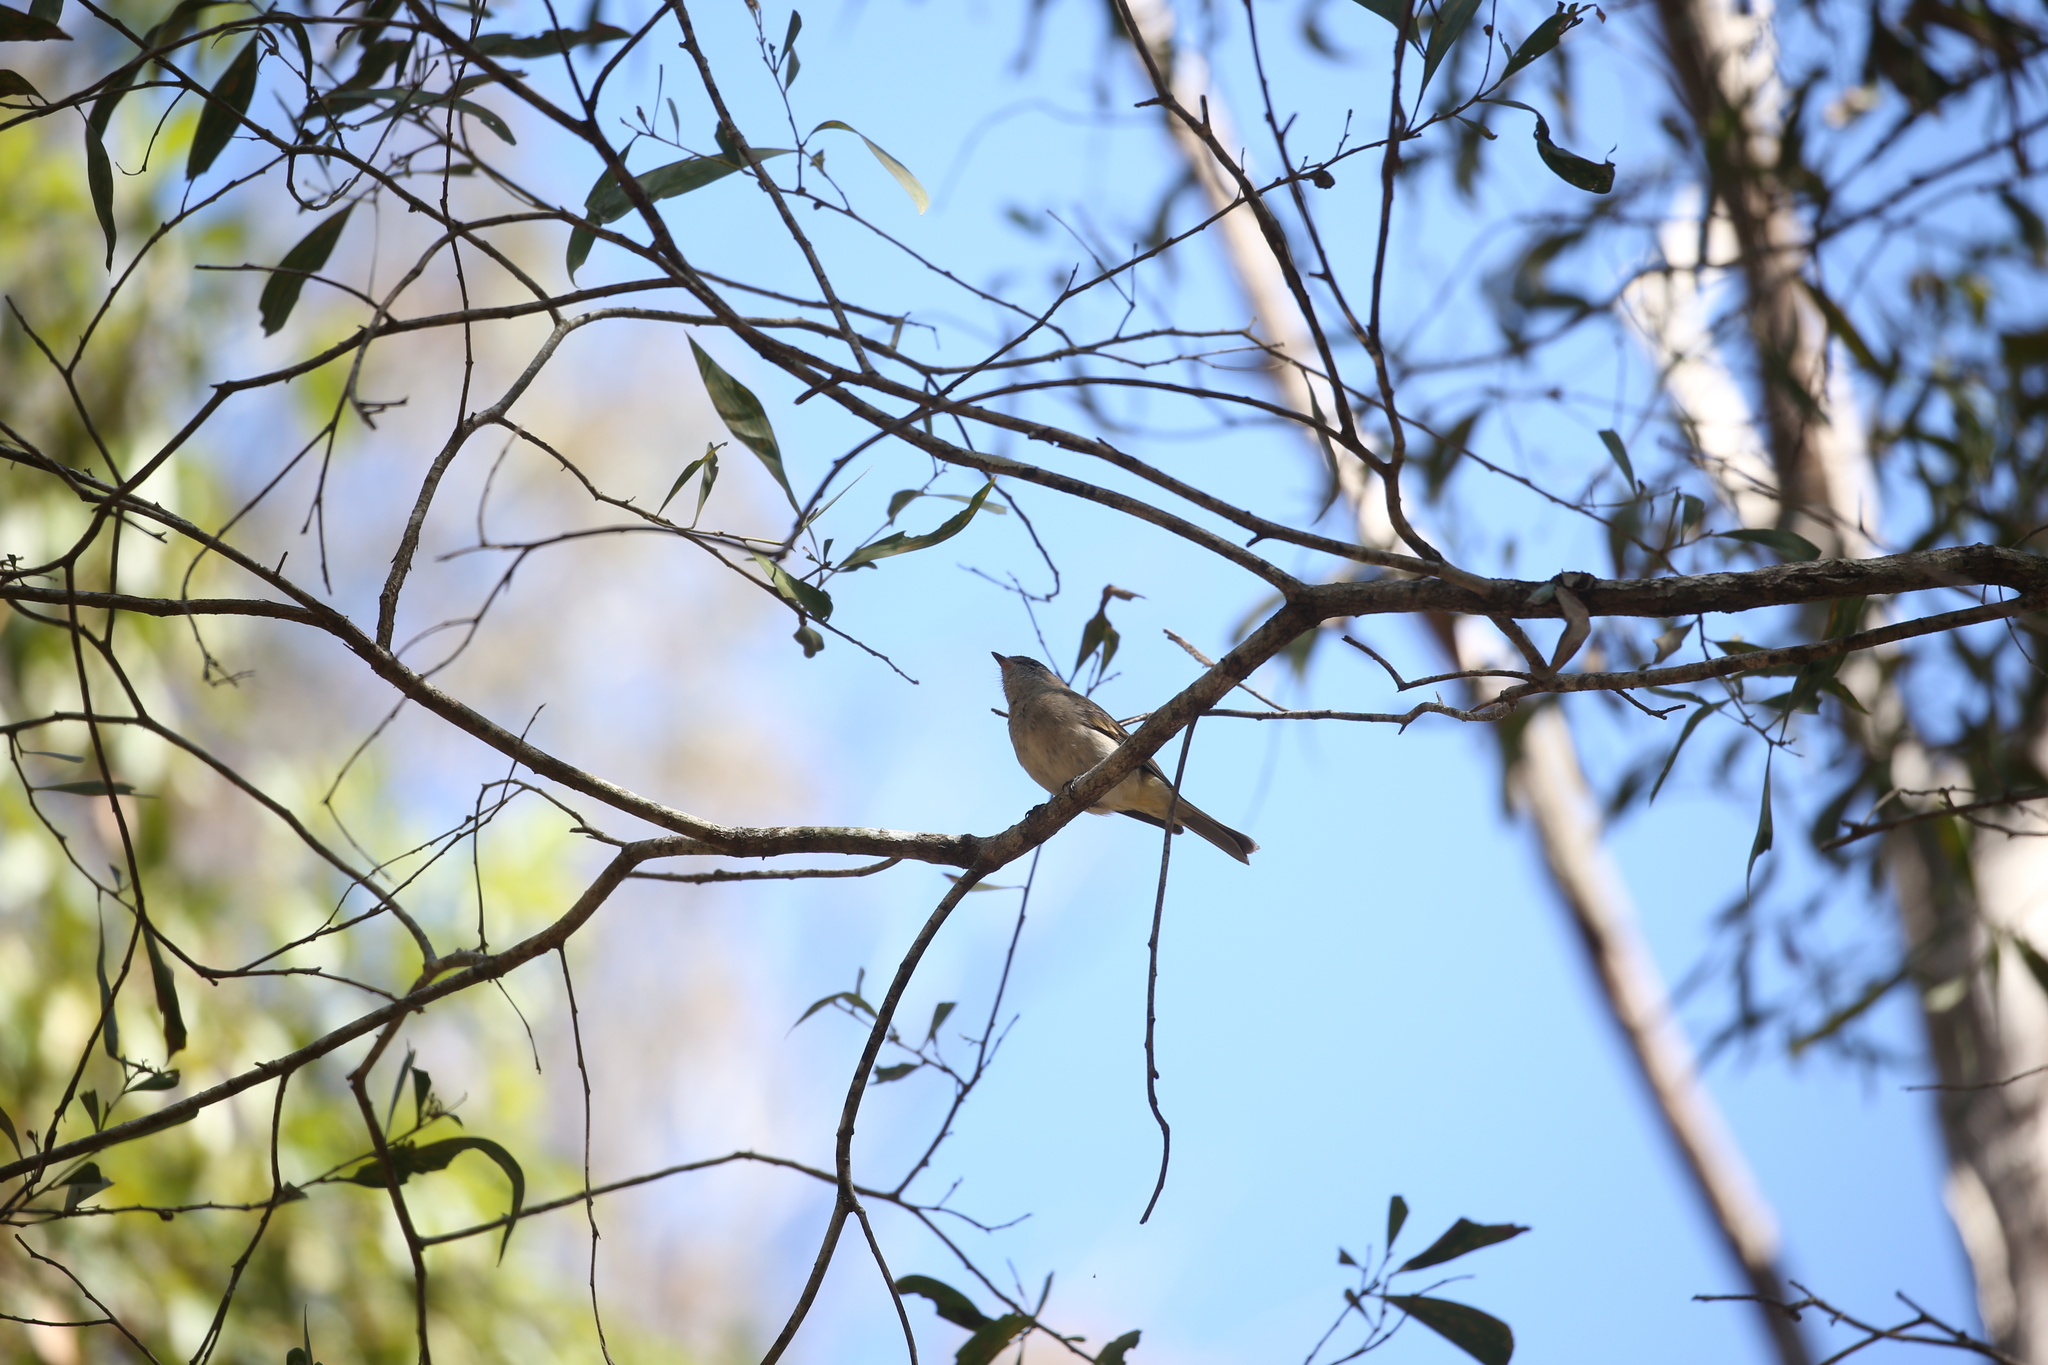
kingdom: Animalia
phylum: Chordata
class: Aves
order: Passeriformes
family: Pachycephalidae
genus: Pachycephala
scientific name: Pachycephala pectoralis
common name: Australian golden whistler
